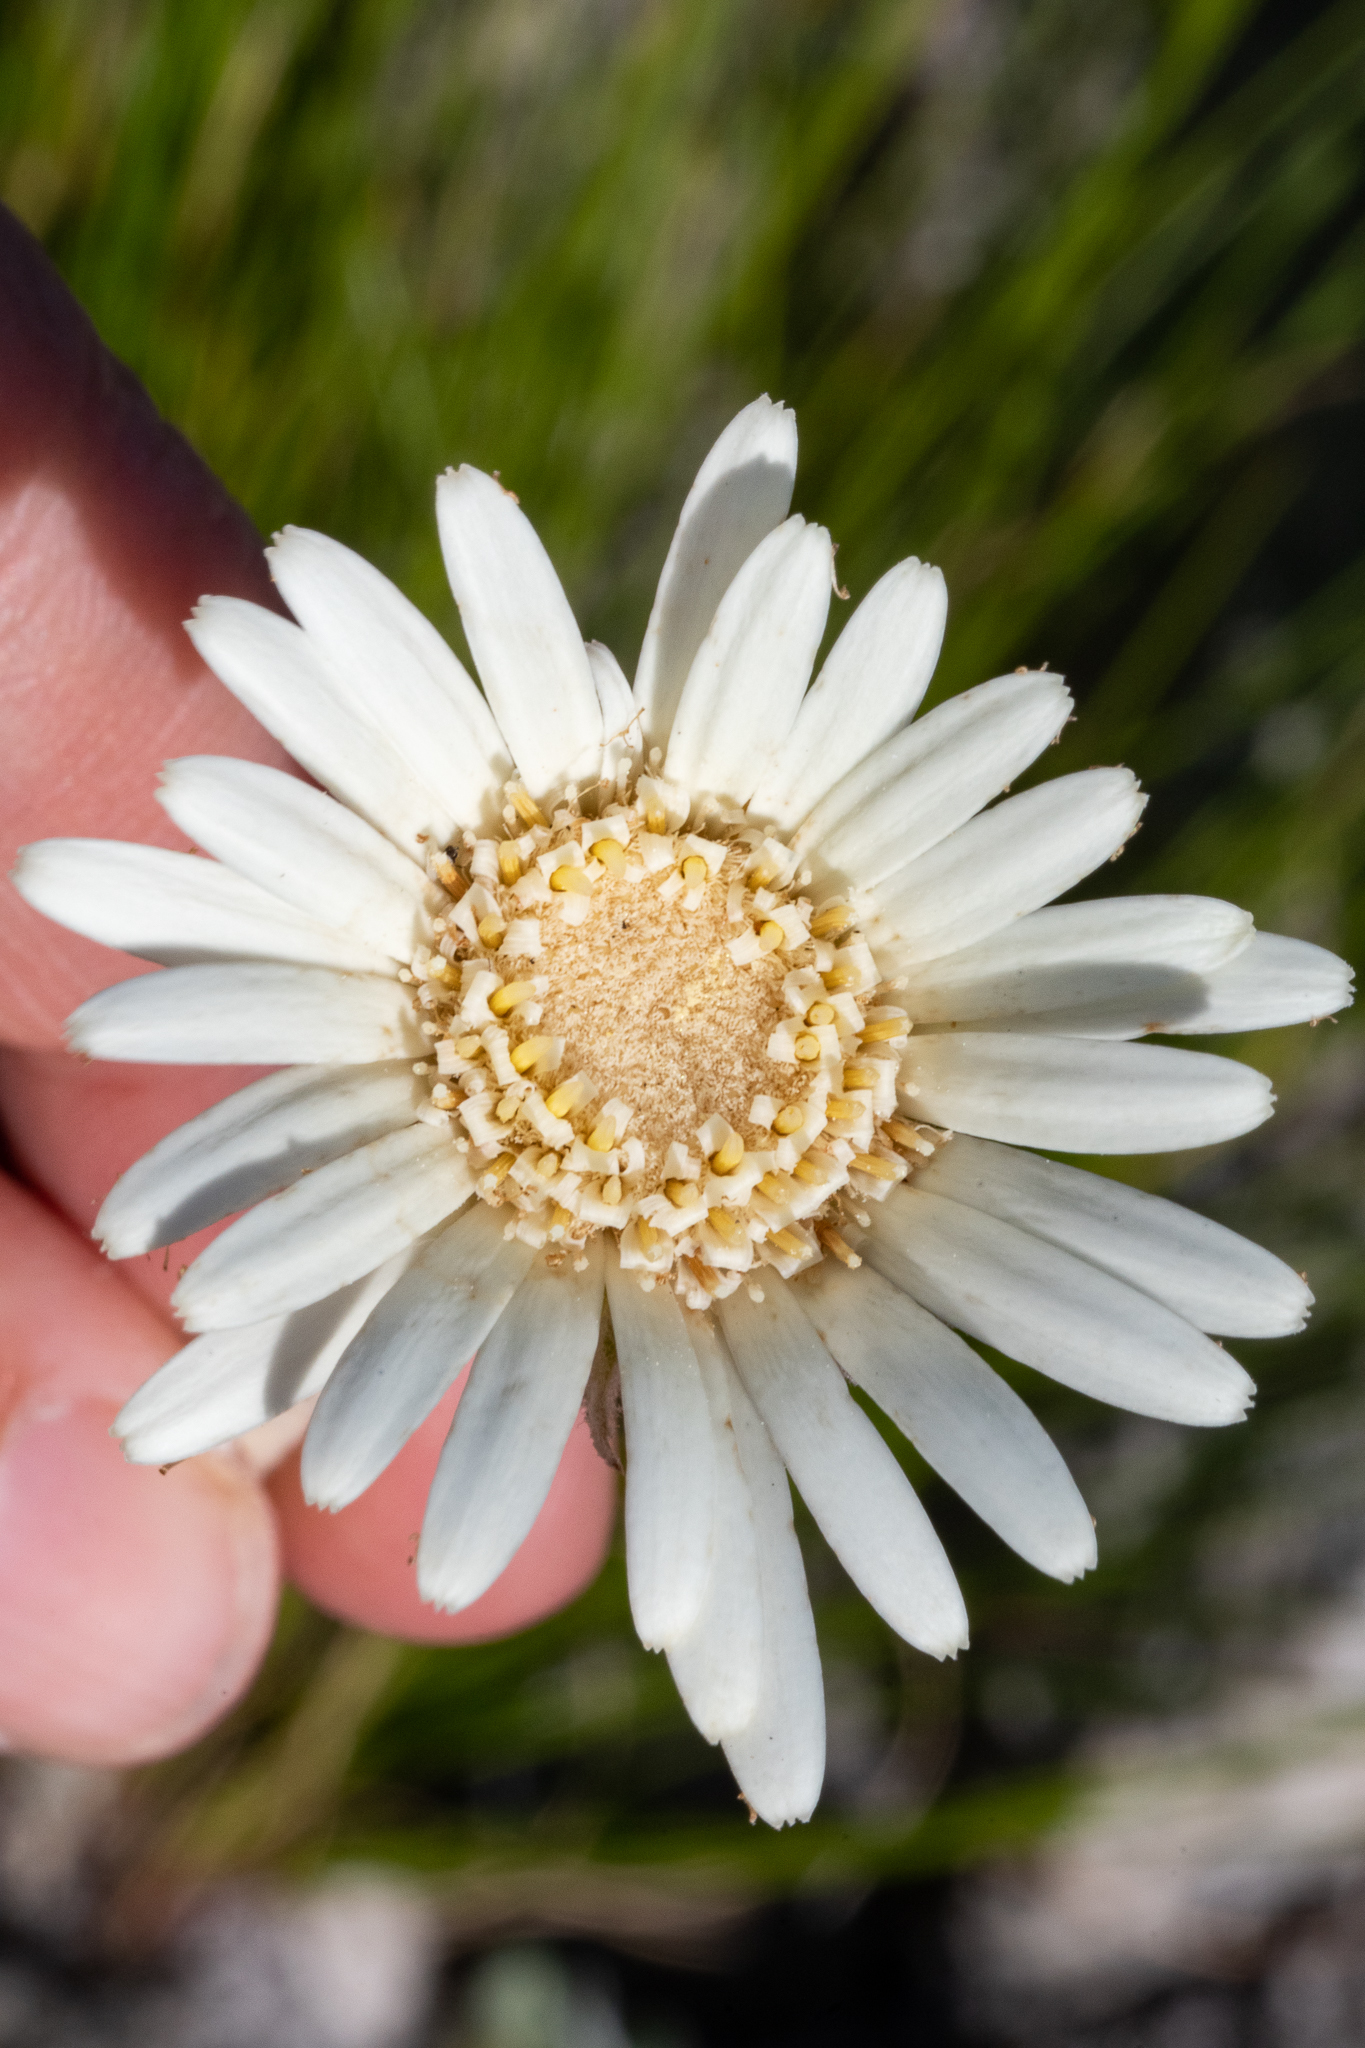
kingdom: Plantae
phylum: Tracheophyta
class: Magnoliopsida
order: Asterales
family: Asteraceae
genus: Gerbera
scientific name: Gerbera tomentosa
